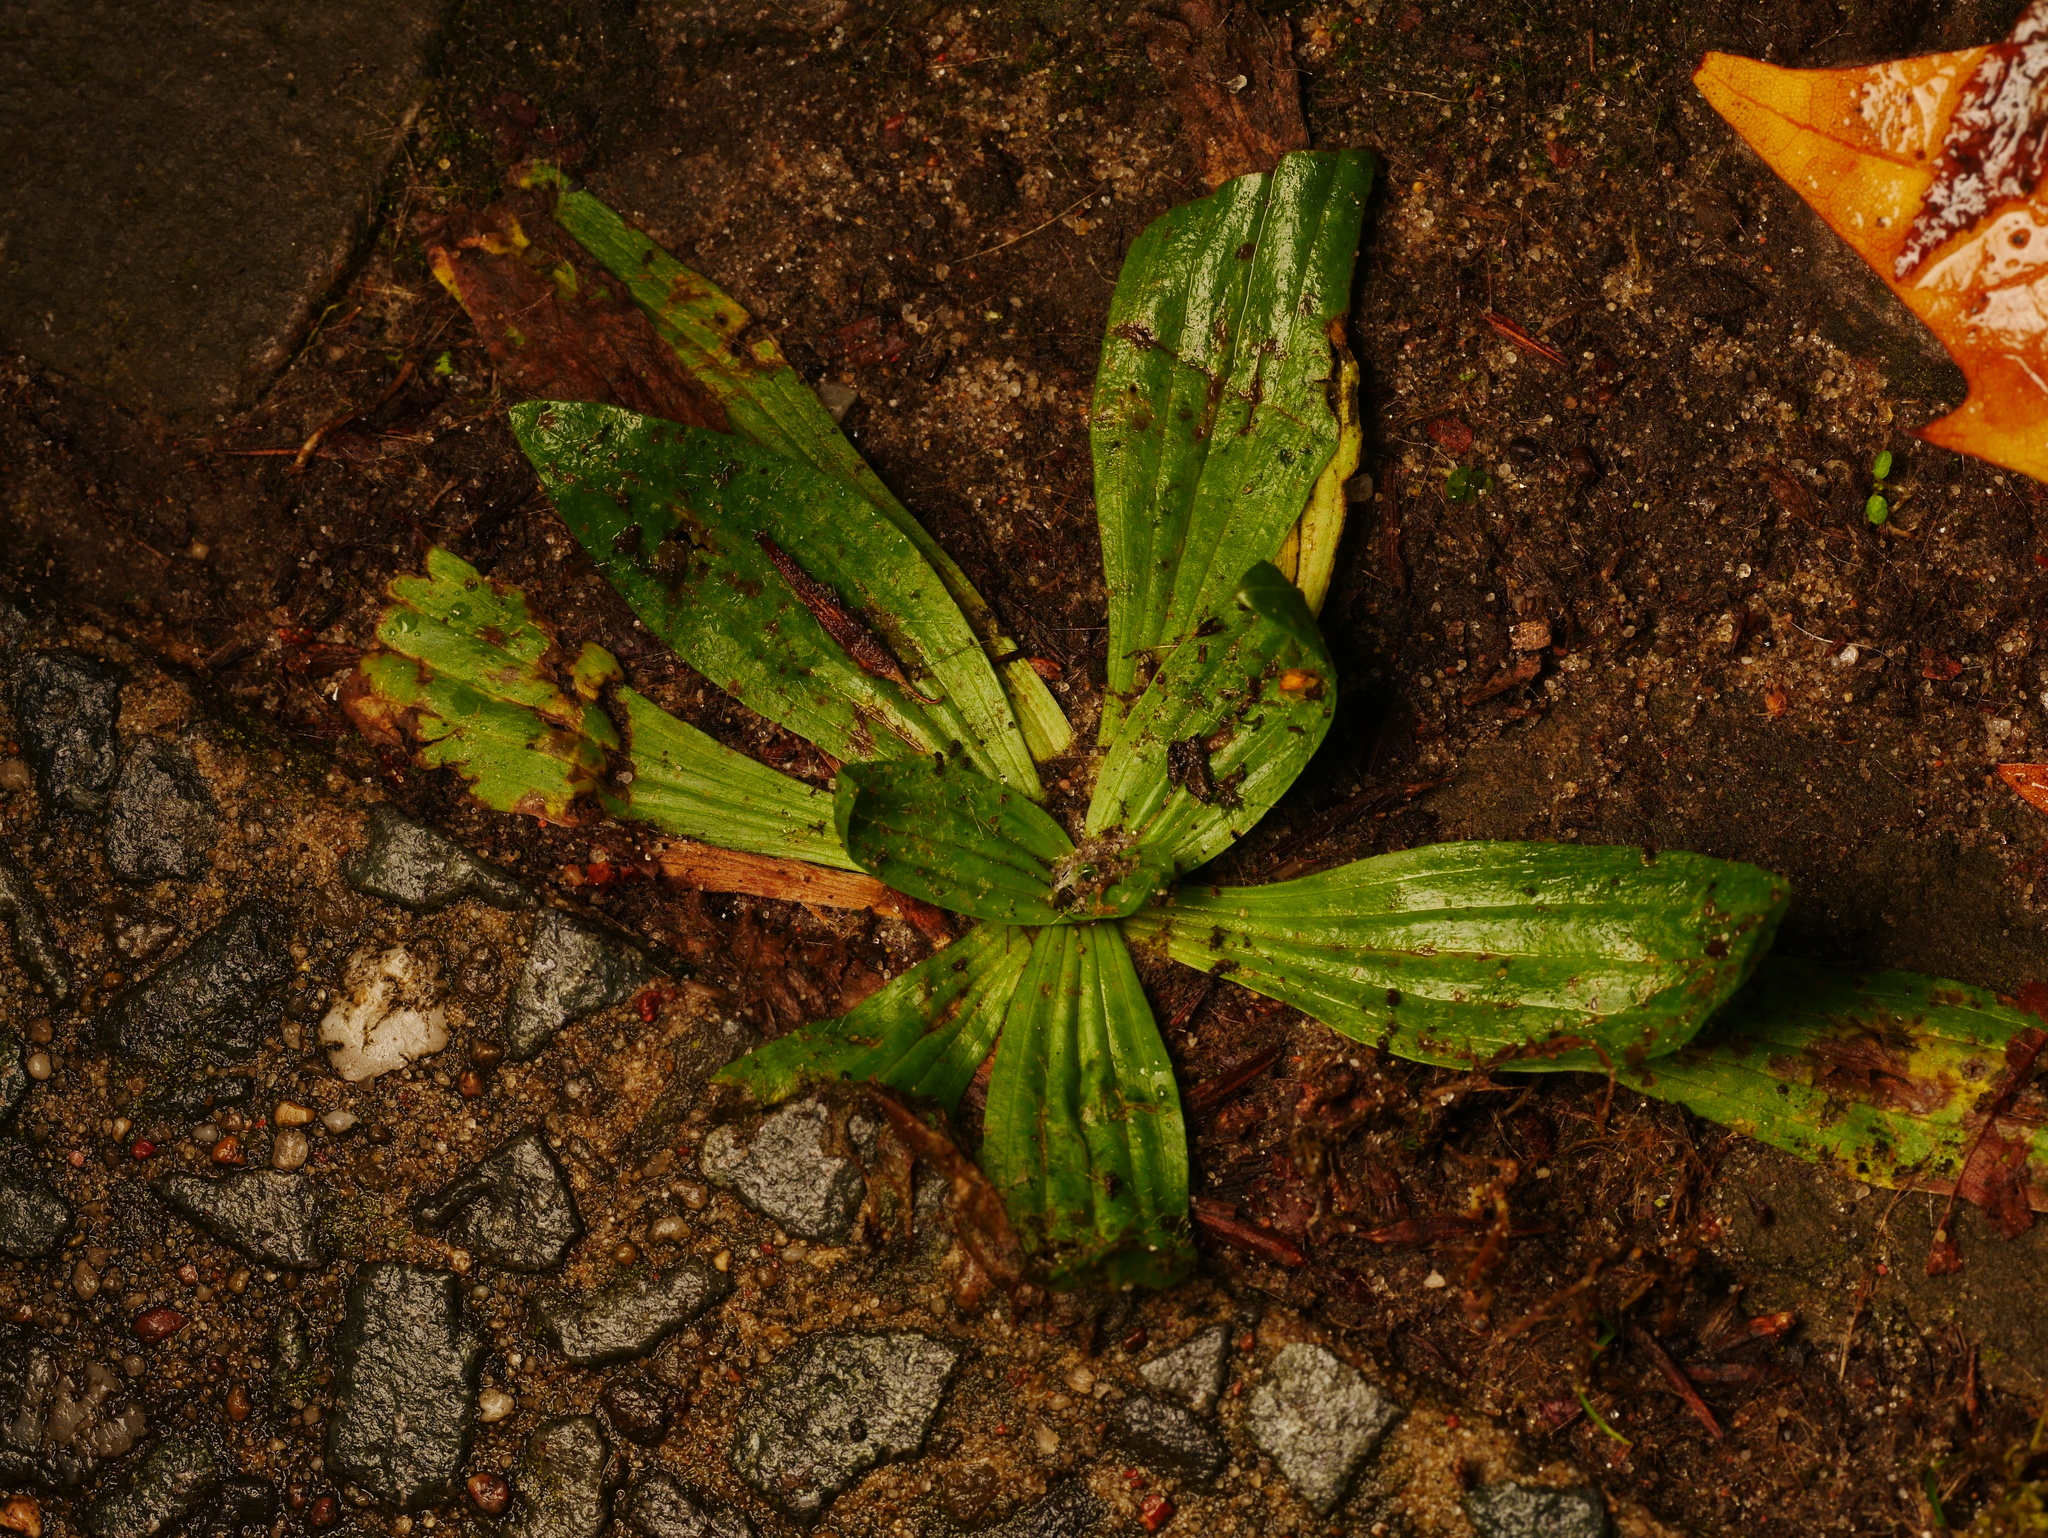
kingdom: Plantae
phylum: Tracheophyta
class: Magnoliopsida
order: Lamiales
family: Plantaginaceae
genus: Plantago
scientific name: Plantago lanceolata
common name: Ribwort plantain
